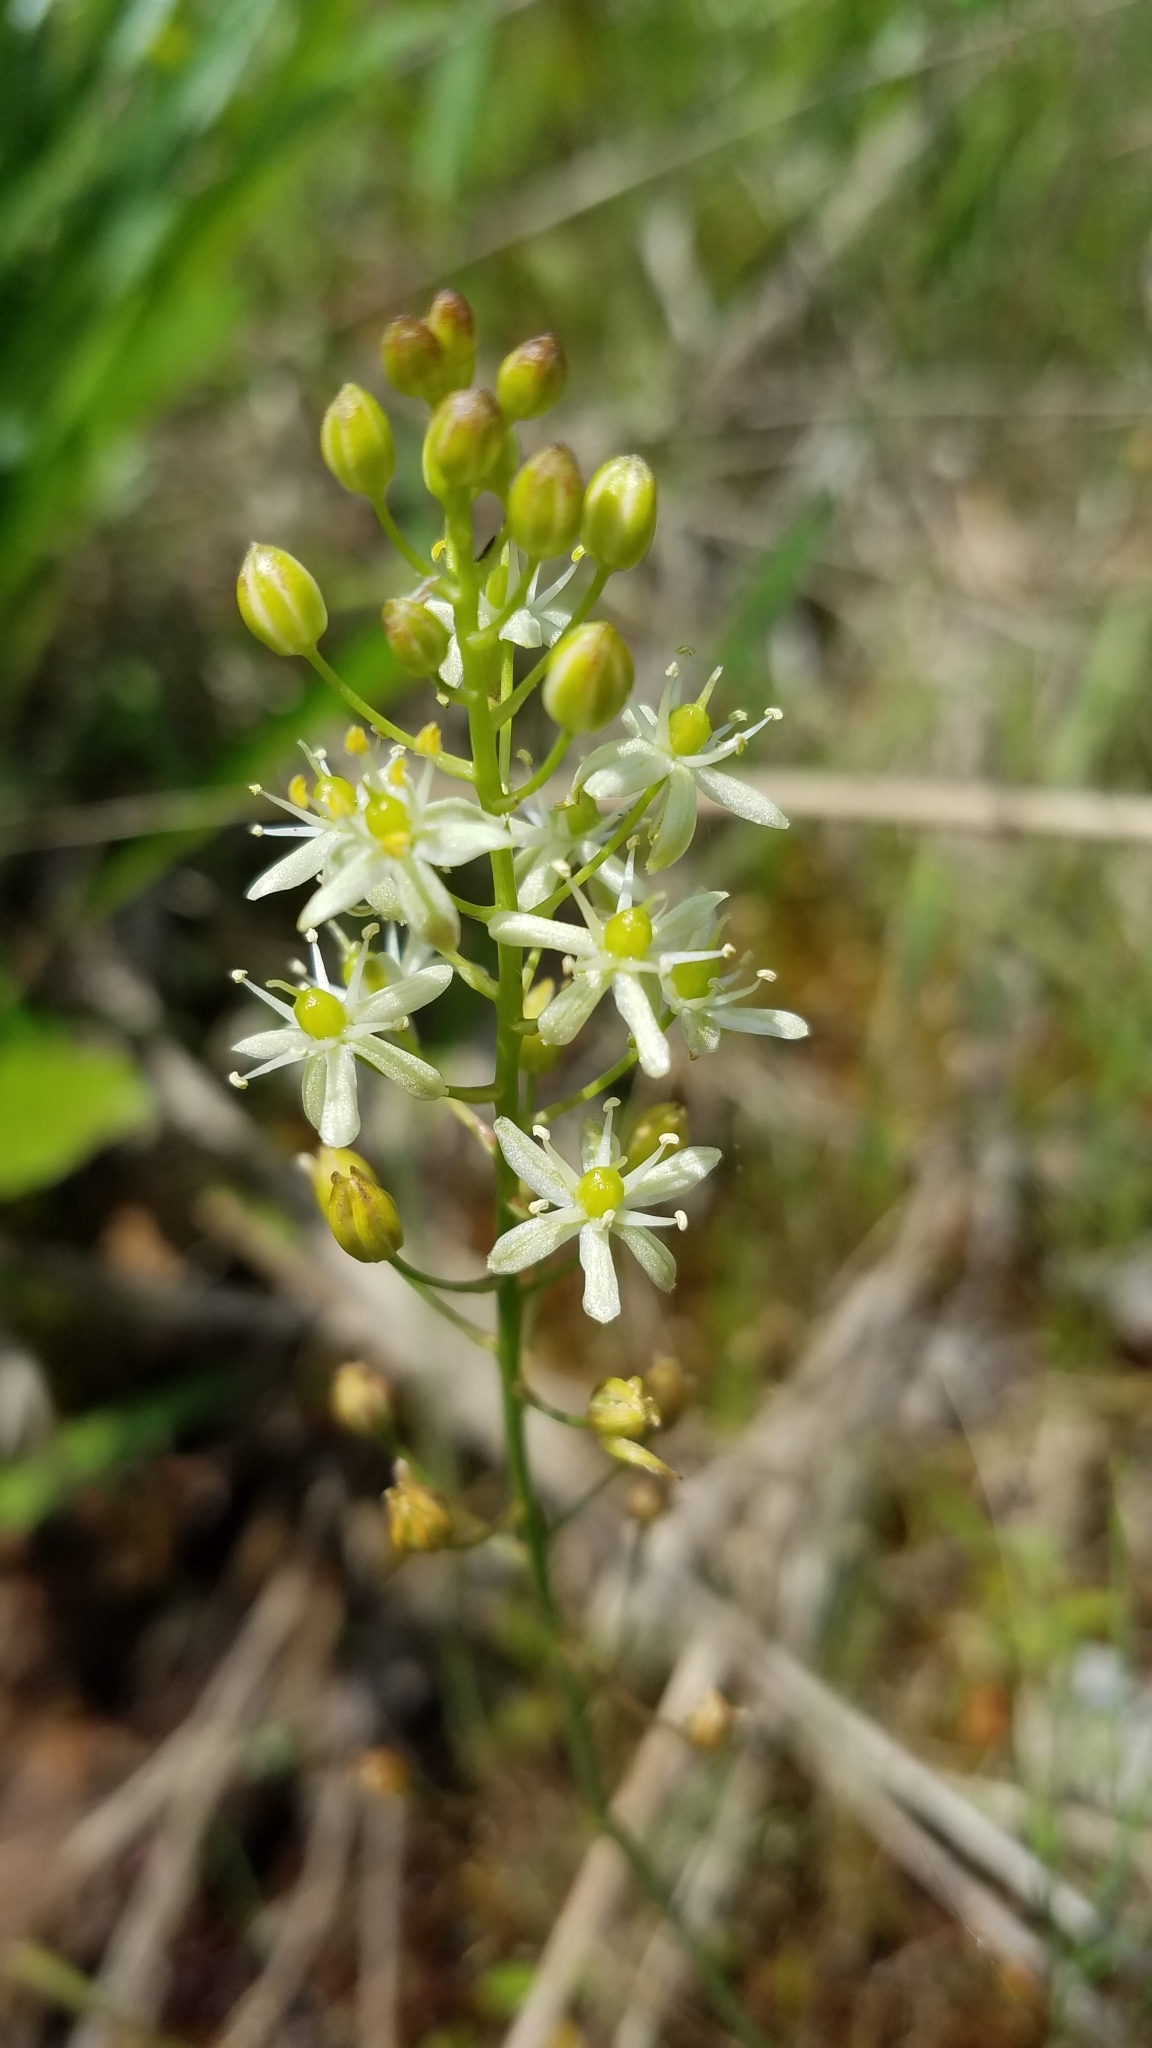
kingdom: Plantae
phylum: Tracheophyta
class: Liliopsida
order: Asparagales
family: Asparagaceae
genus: Schoenolirion
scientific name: Schoenolirion wrightii
